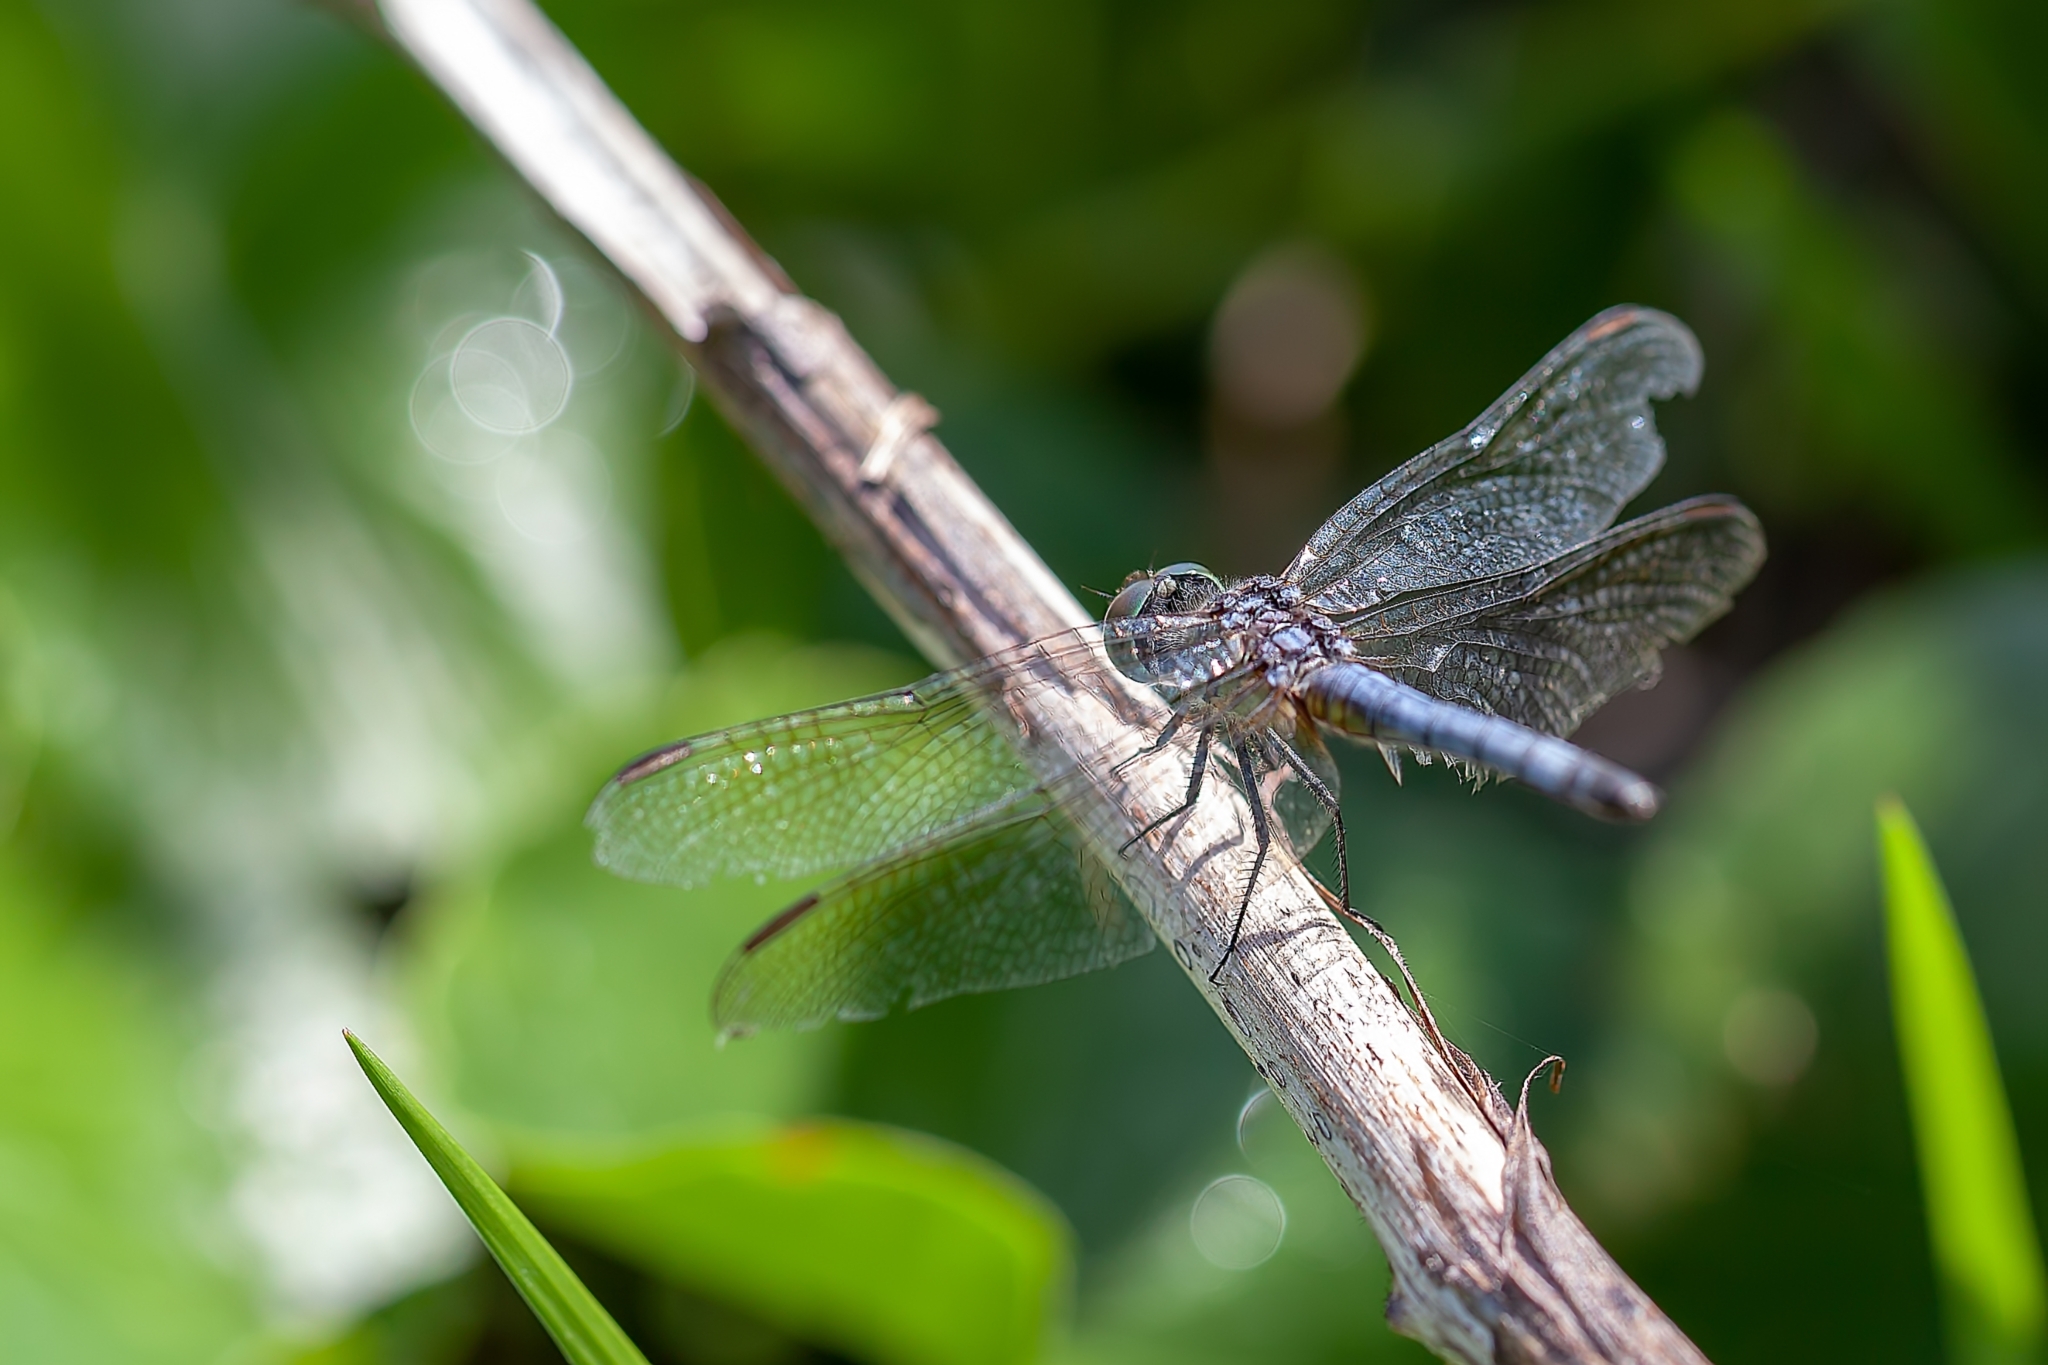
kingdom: Animalia
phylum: Arthropoda
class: Insecta
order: Odonata
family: Libellulidae
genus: Pachydiplax
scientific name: Pachydiplax longipennis
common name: Blue dasher
